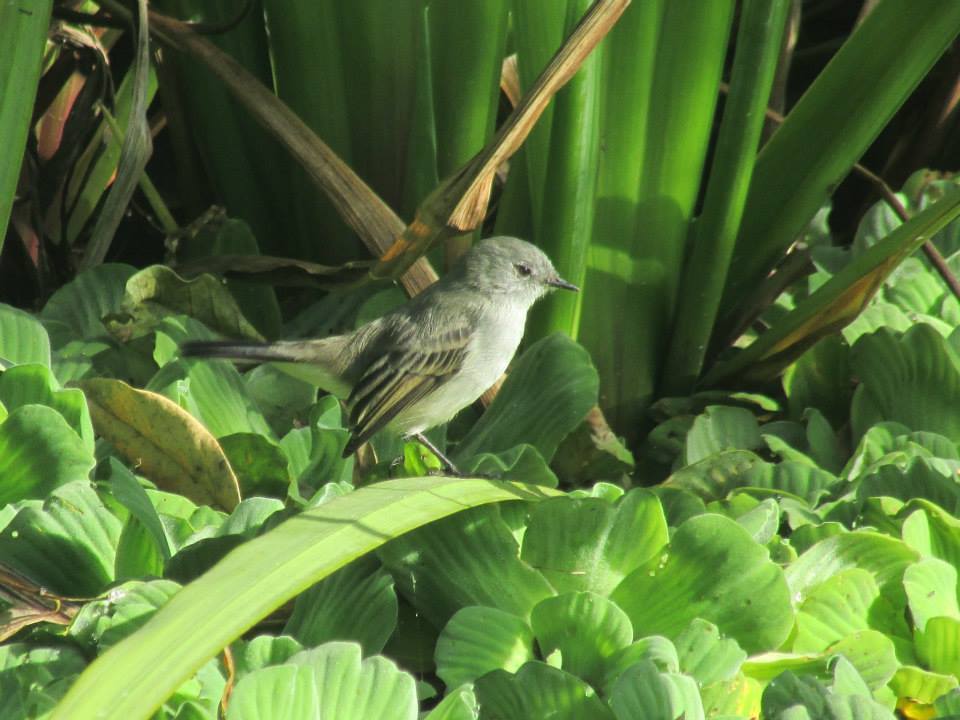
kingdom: Animalia
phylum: Chordata
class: Aves
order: Passeriformes
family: Tyrannidae
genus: Serpophaga
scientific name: Serpophaga nigricans
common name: Sooty tyrannulet
